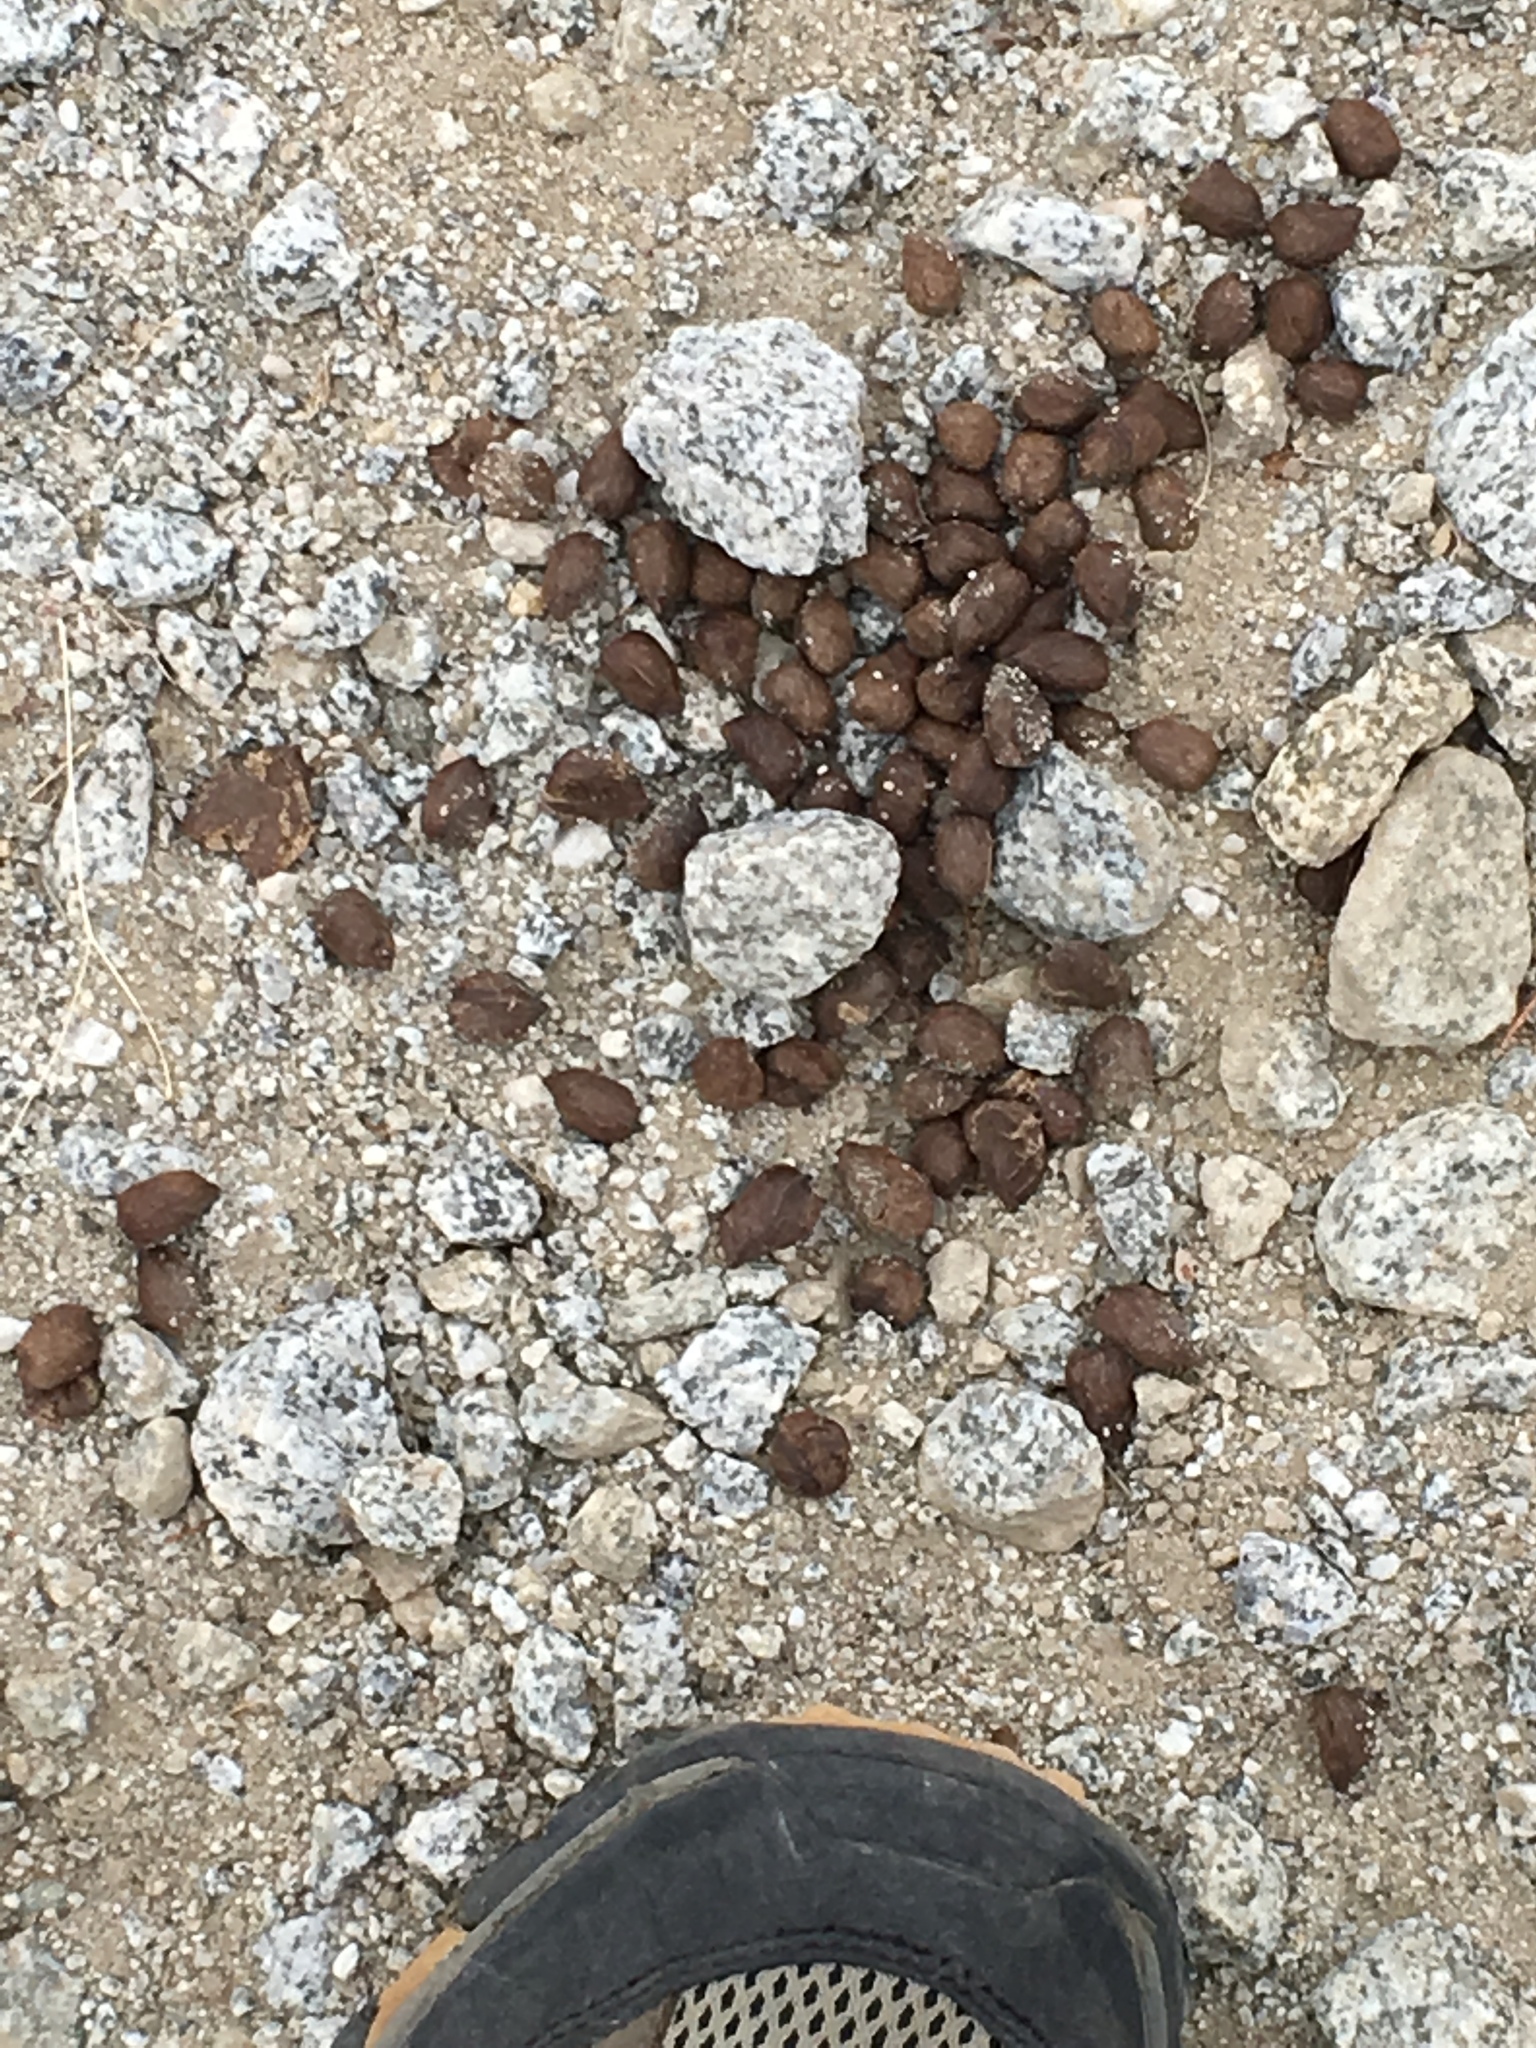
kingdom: Animalia
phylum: Chordata
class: Mammalia
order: Artiodactyla
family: Bovidae
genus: Ovis
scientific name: Ovis canadensis
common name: Bighorn sheep
